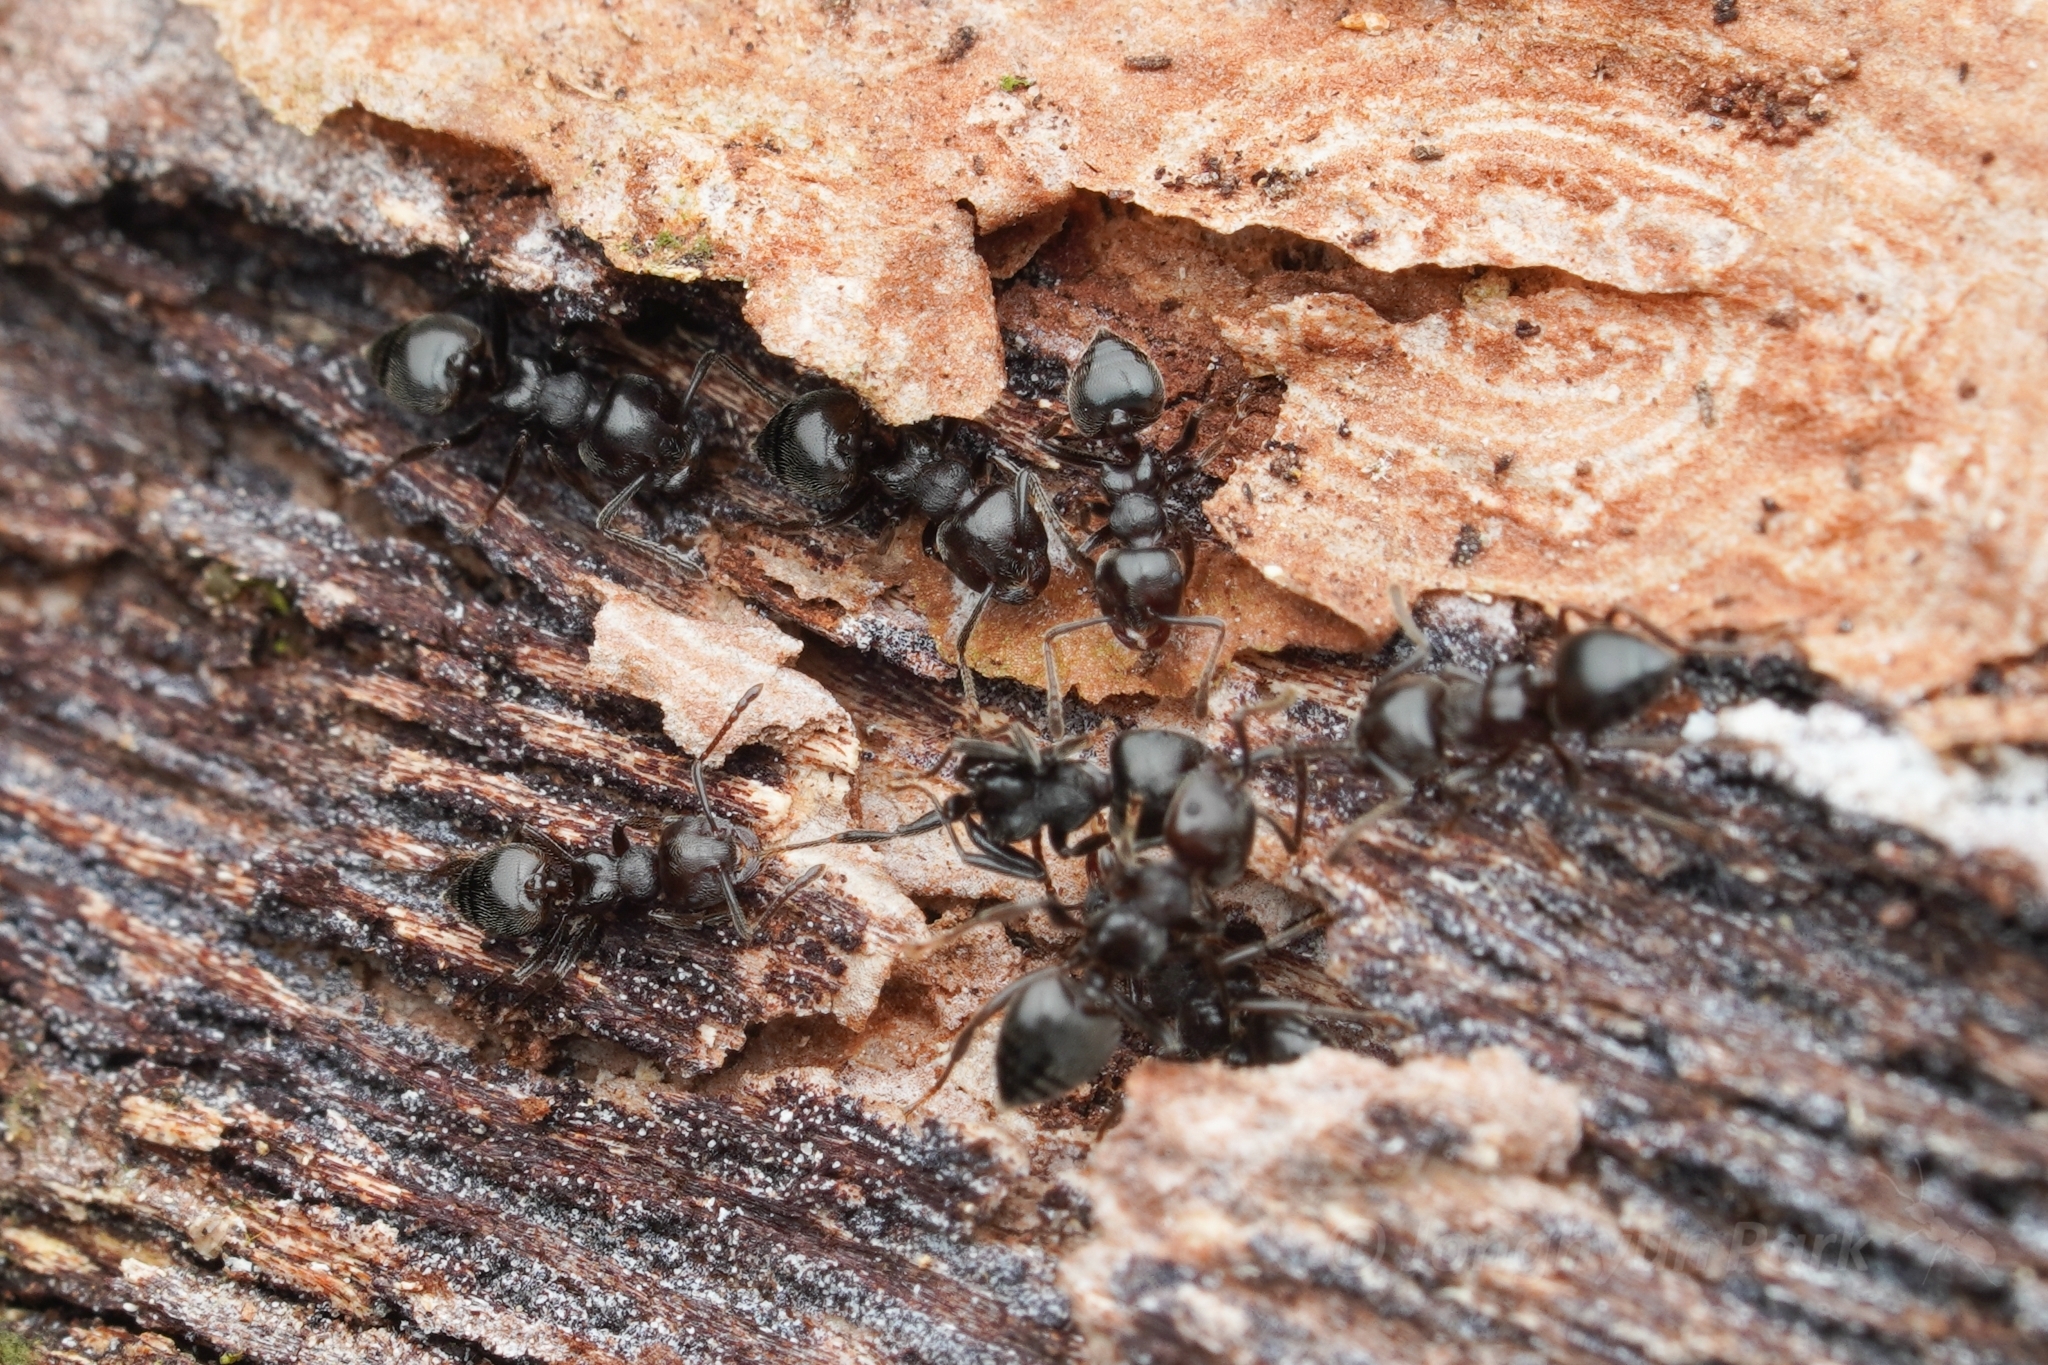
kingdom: Animalia
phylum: Arthropoda
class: Insecta
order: Hymenoptera
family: Formicidae
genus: Crematogaster
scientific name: Crematogaster sewardi
